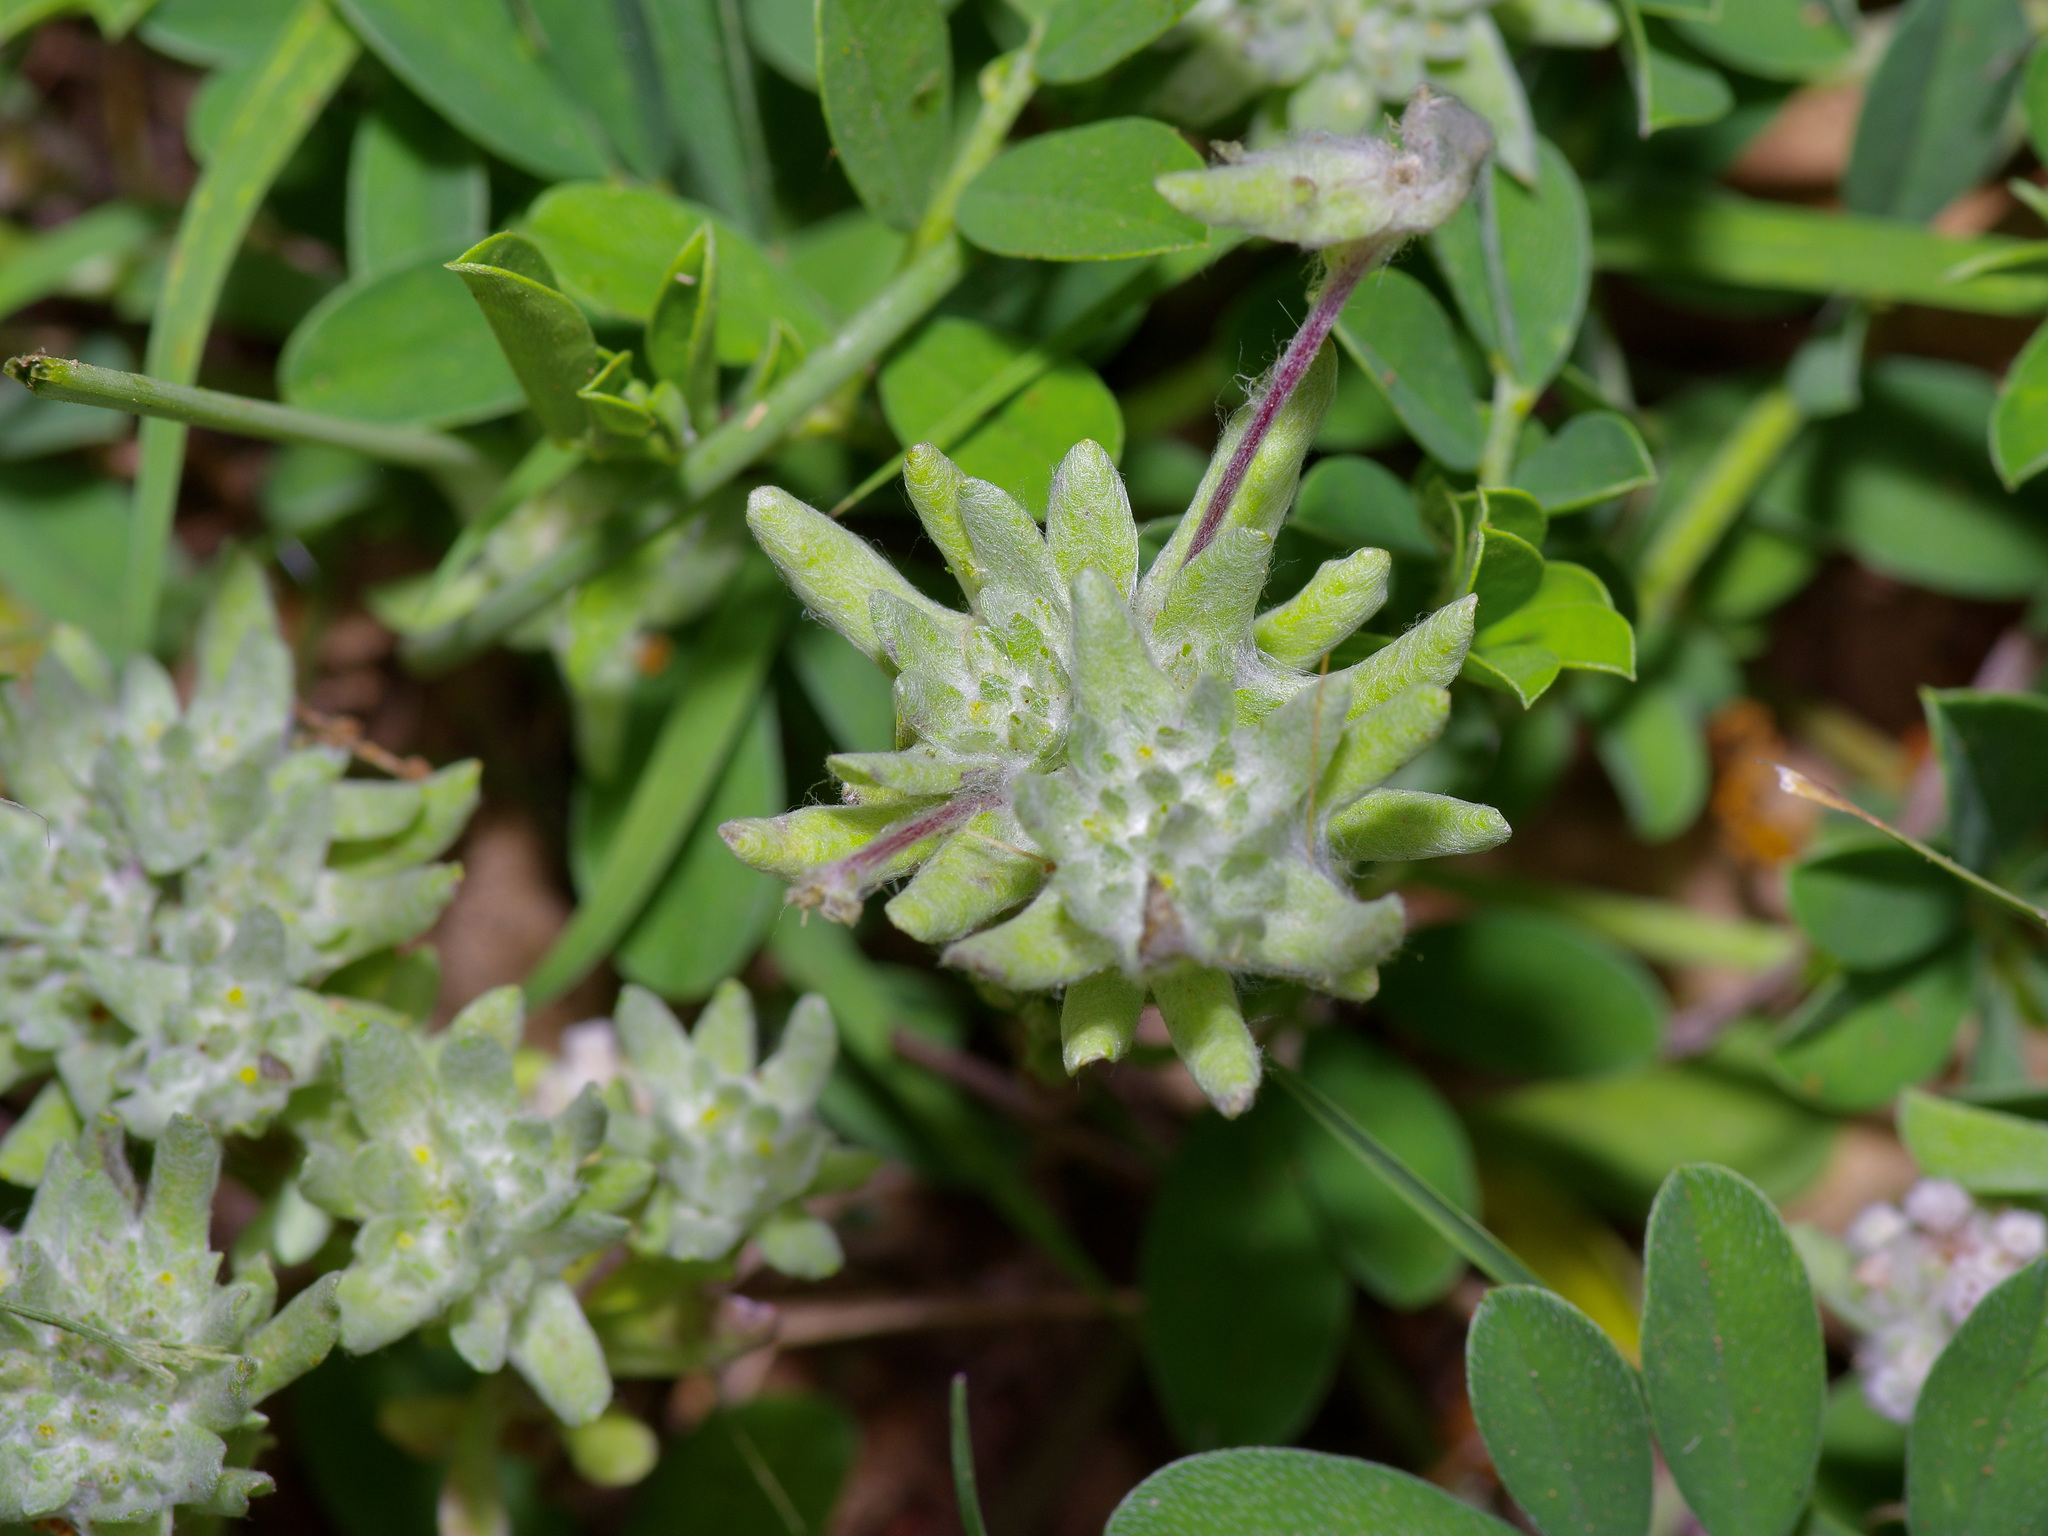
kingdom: Plantae
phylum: Tracheophyta
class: Magnoliopsida
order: Asterales
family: Asteraceae
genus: Diaperia
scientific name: Diaperia prolifera
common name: Big-head rabbit-tobacco
